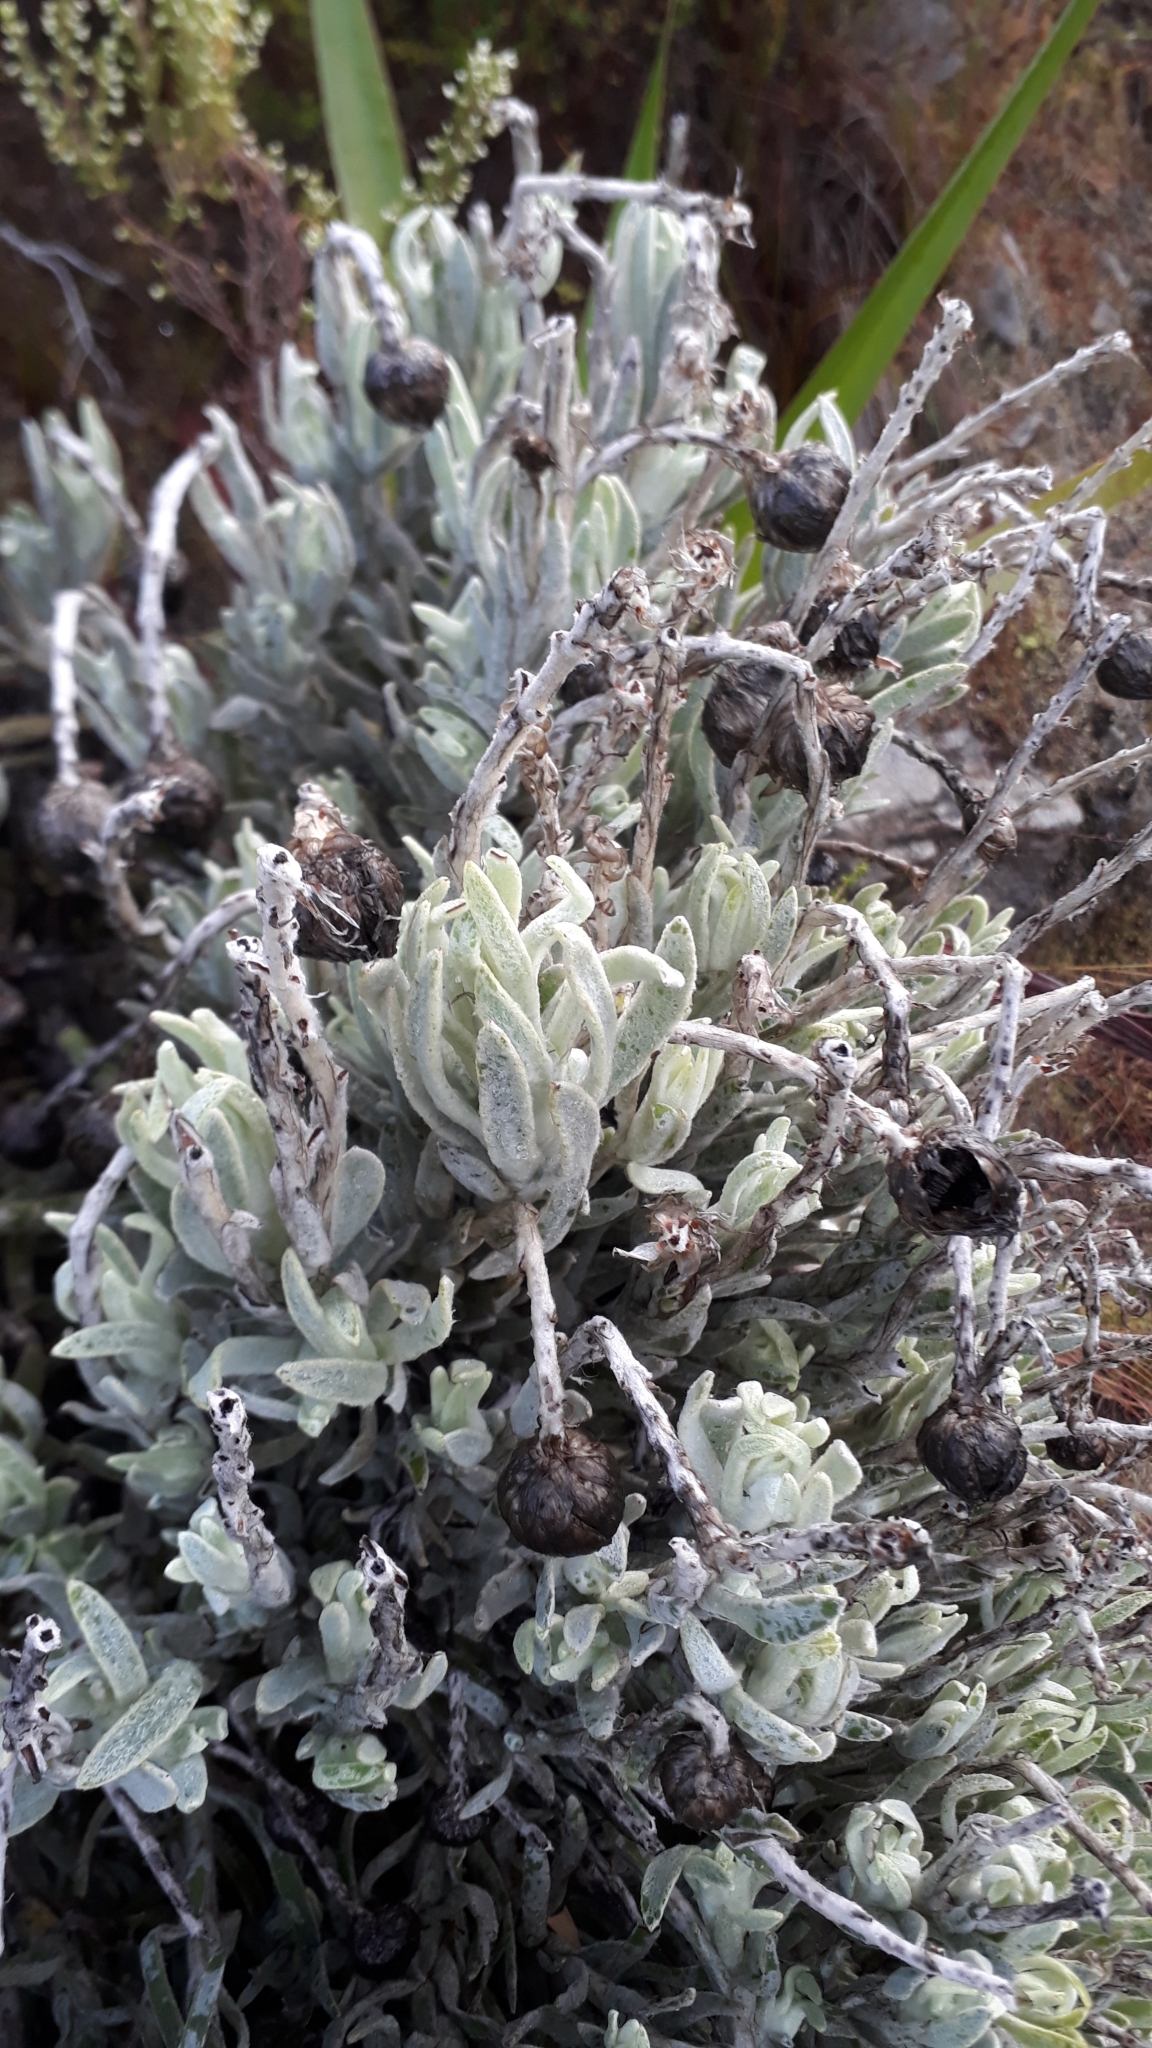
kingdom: Plantae
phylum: Tracheophyta
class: Magnoliopsida
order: Asterales
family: Asteraceae
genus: Syncarpha
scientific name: Syncarpha vestita
